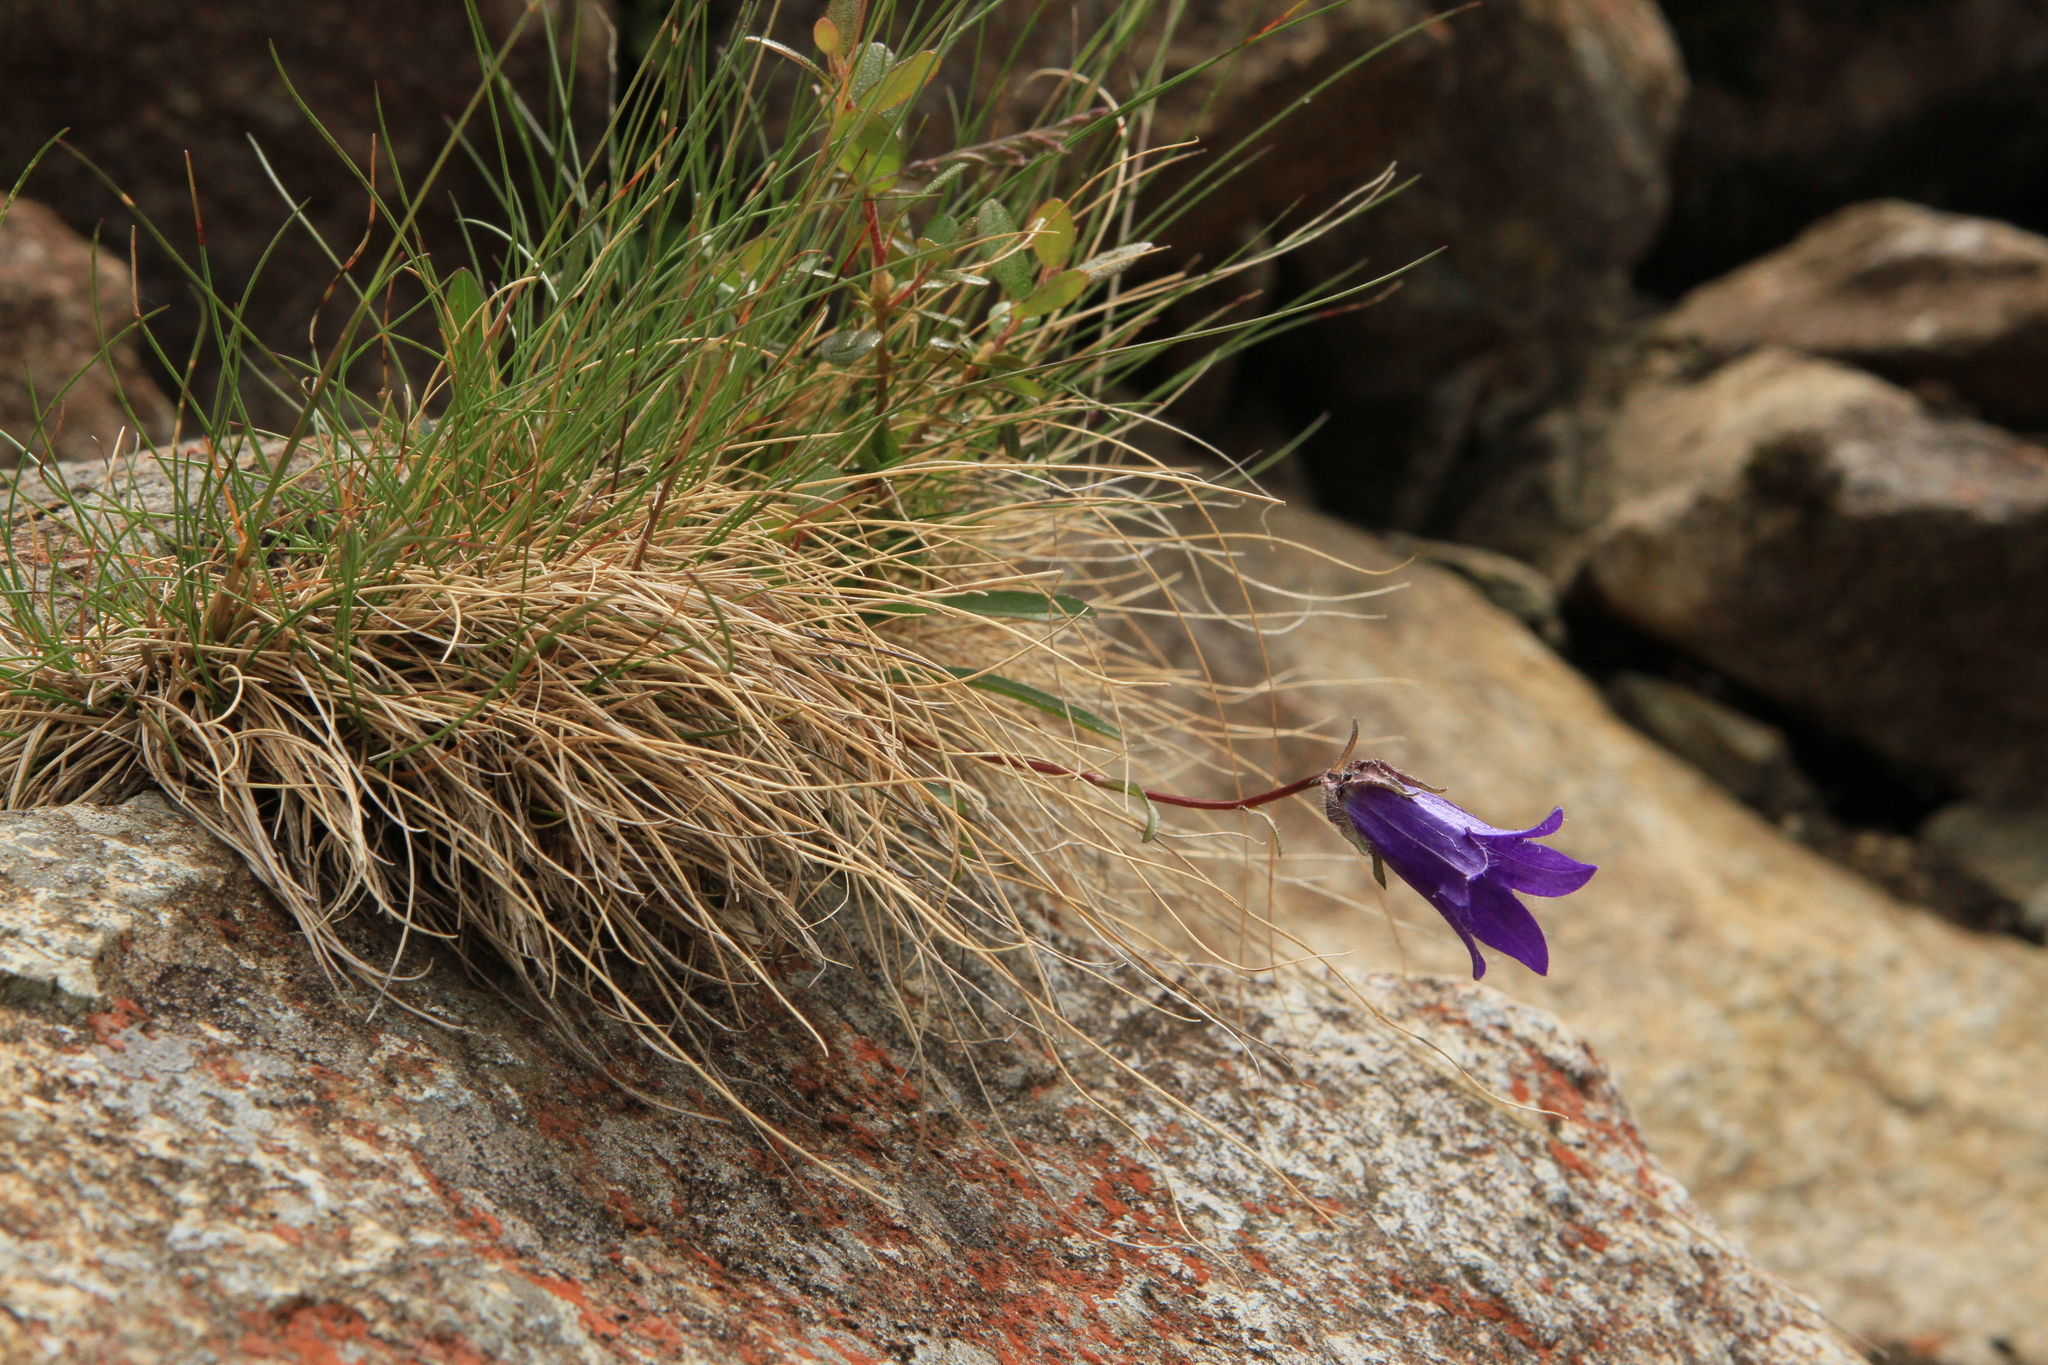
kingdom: Plantae
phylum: Tracheophyta
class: Magnoliopsida
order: Asterales
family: Campanulaceae
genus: Campanula
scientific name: Campanula dasyantha
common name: Hairyflower bellflower
